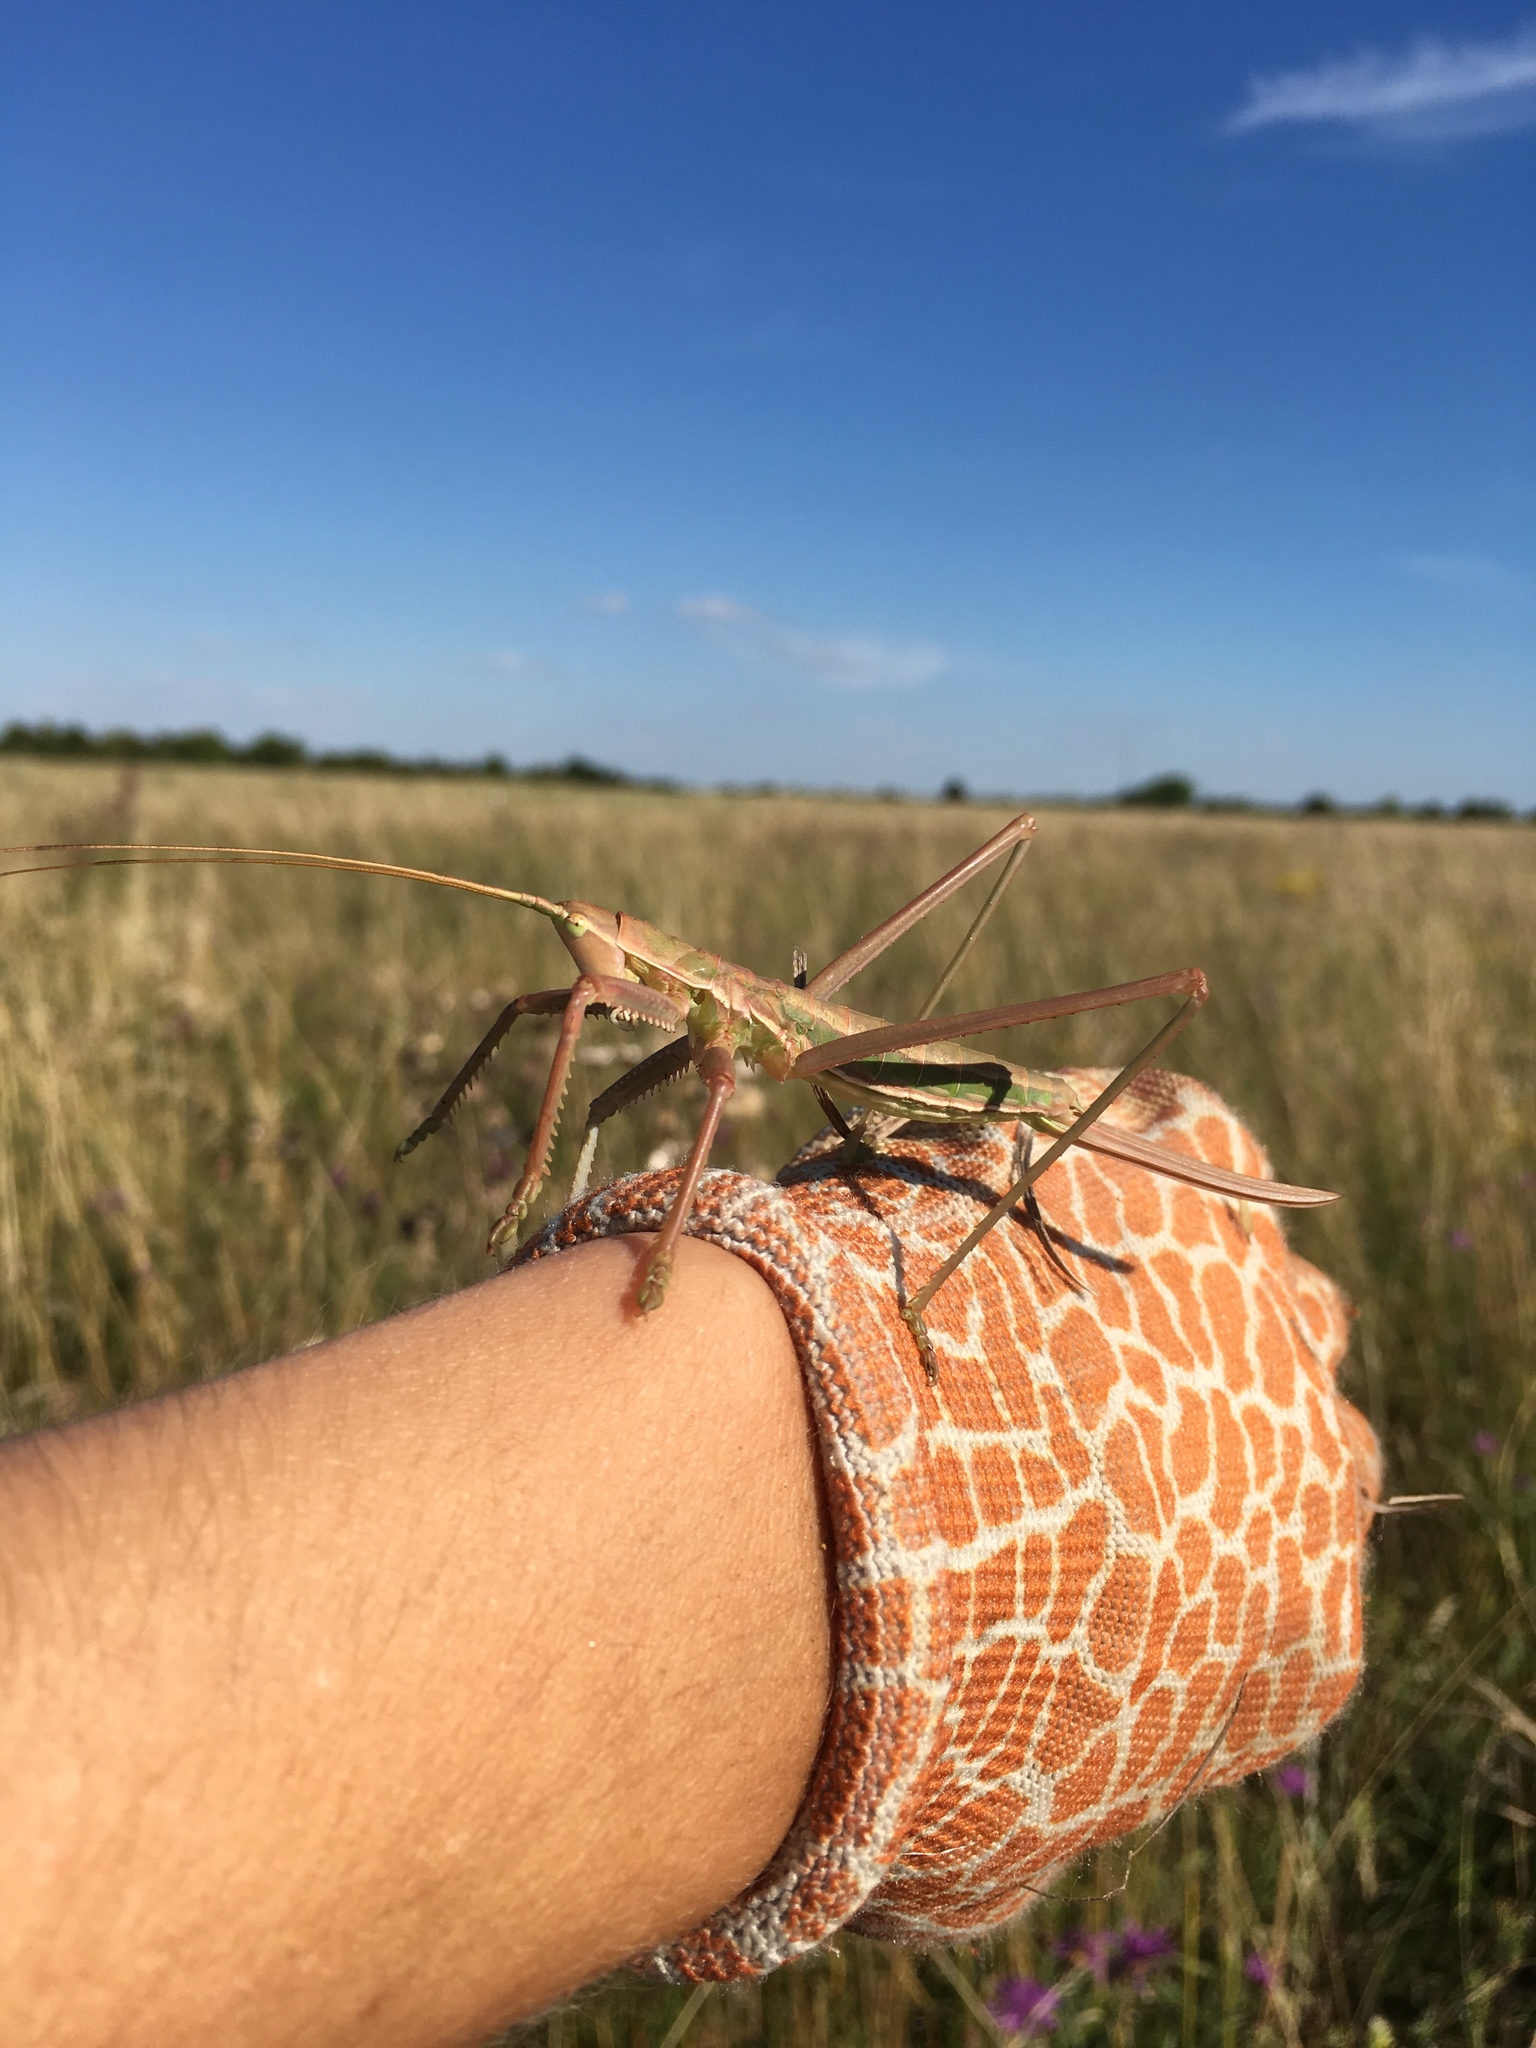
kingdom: Animalia
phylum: Arthropoda
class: Insecta
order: Orthoptera
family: Tettigoniidae
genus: Saga
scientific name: Saga pedo
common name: Common predatory bush-cricket
